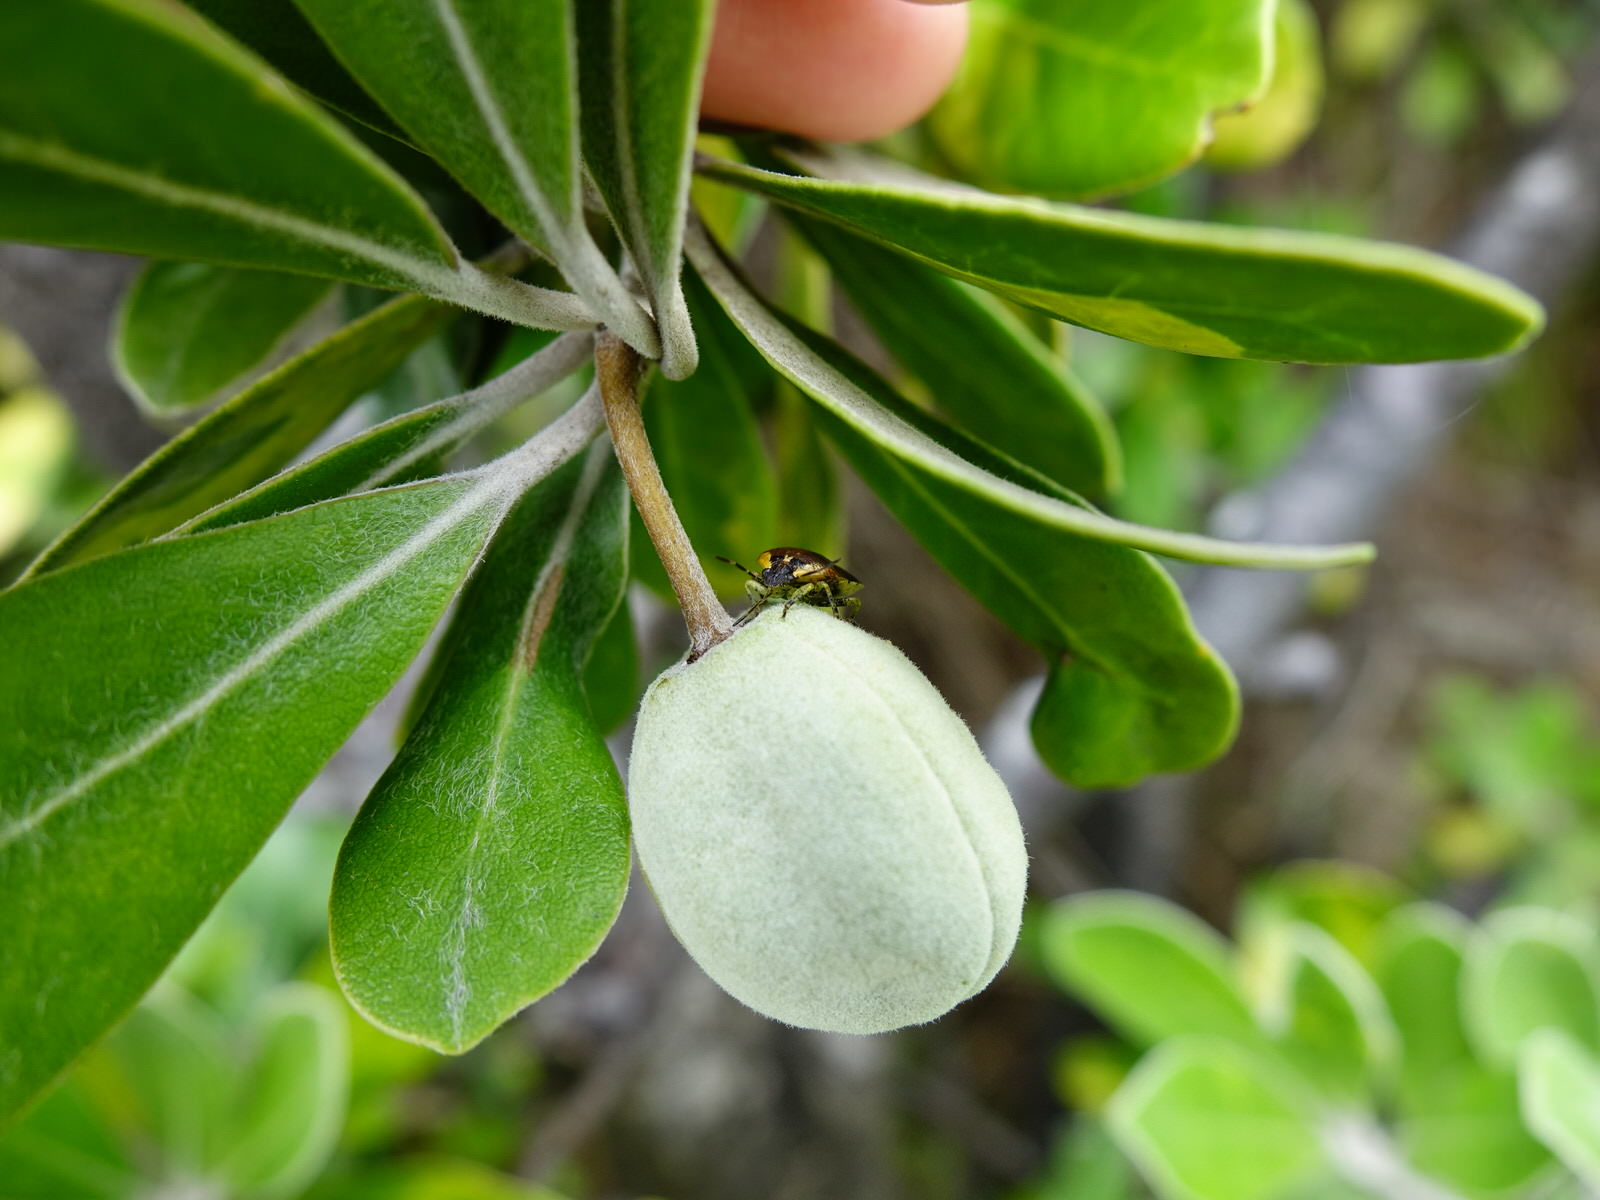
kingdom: Plantae
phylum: Tracheophyta
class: Magnoliopsida
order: Apiales
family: Pittosporaceae
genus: Pittosporum
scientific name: Pittosporum crassifolium
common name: Karo
